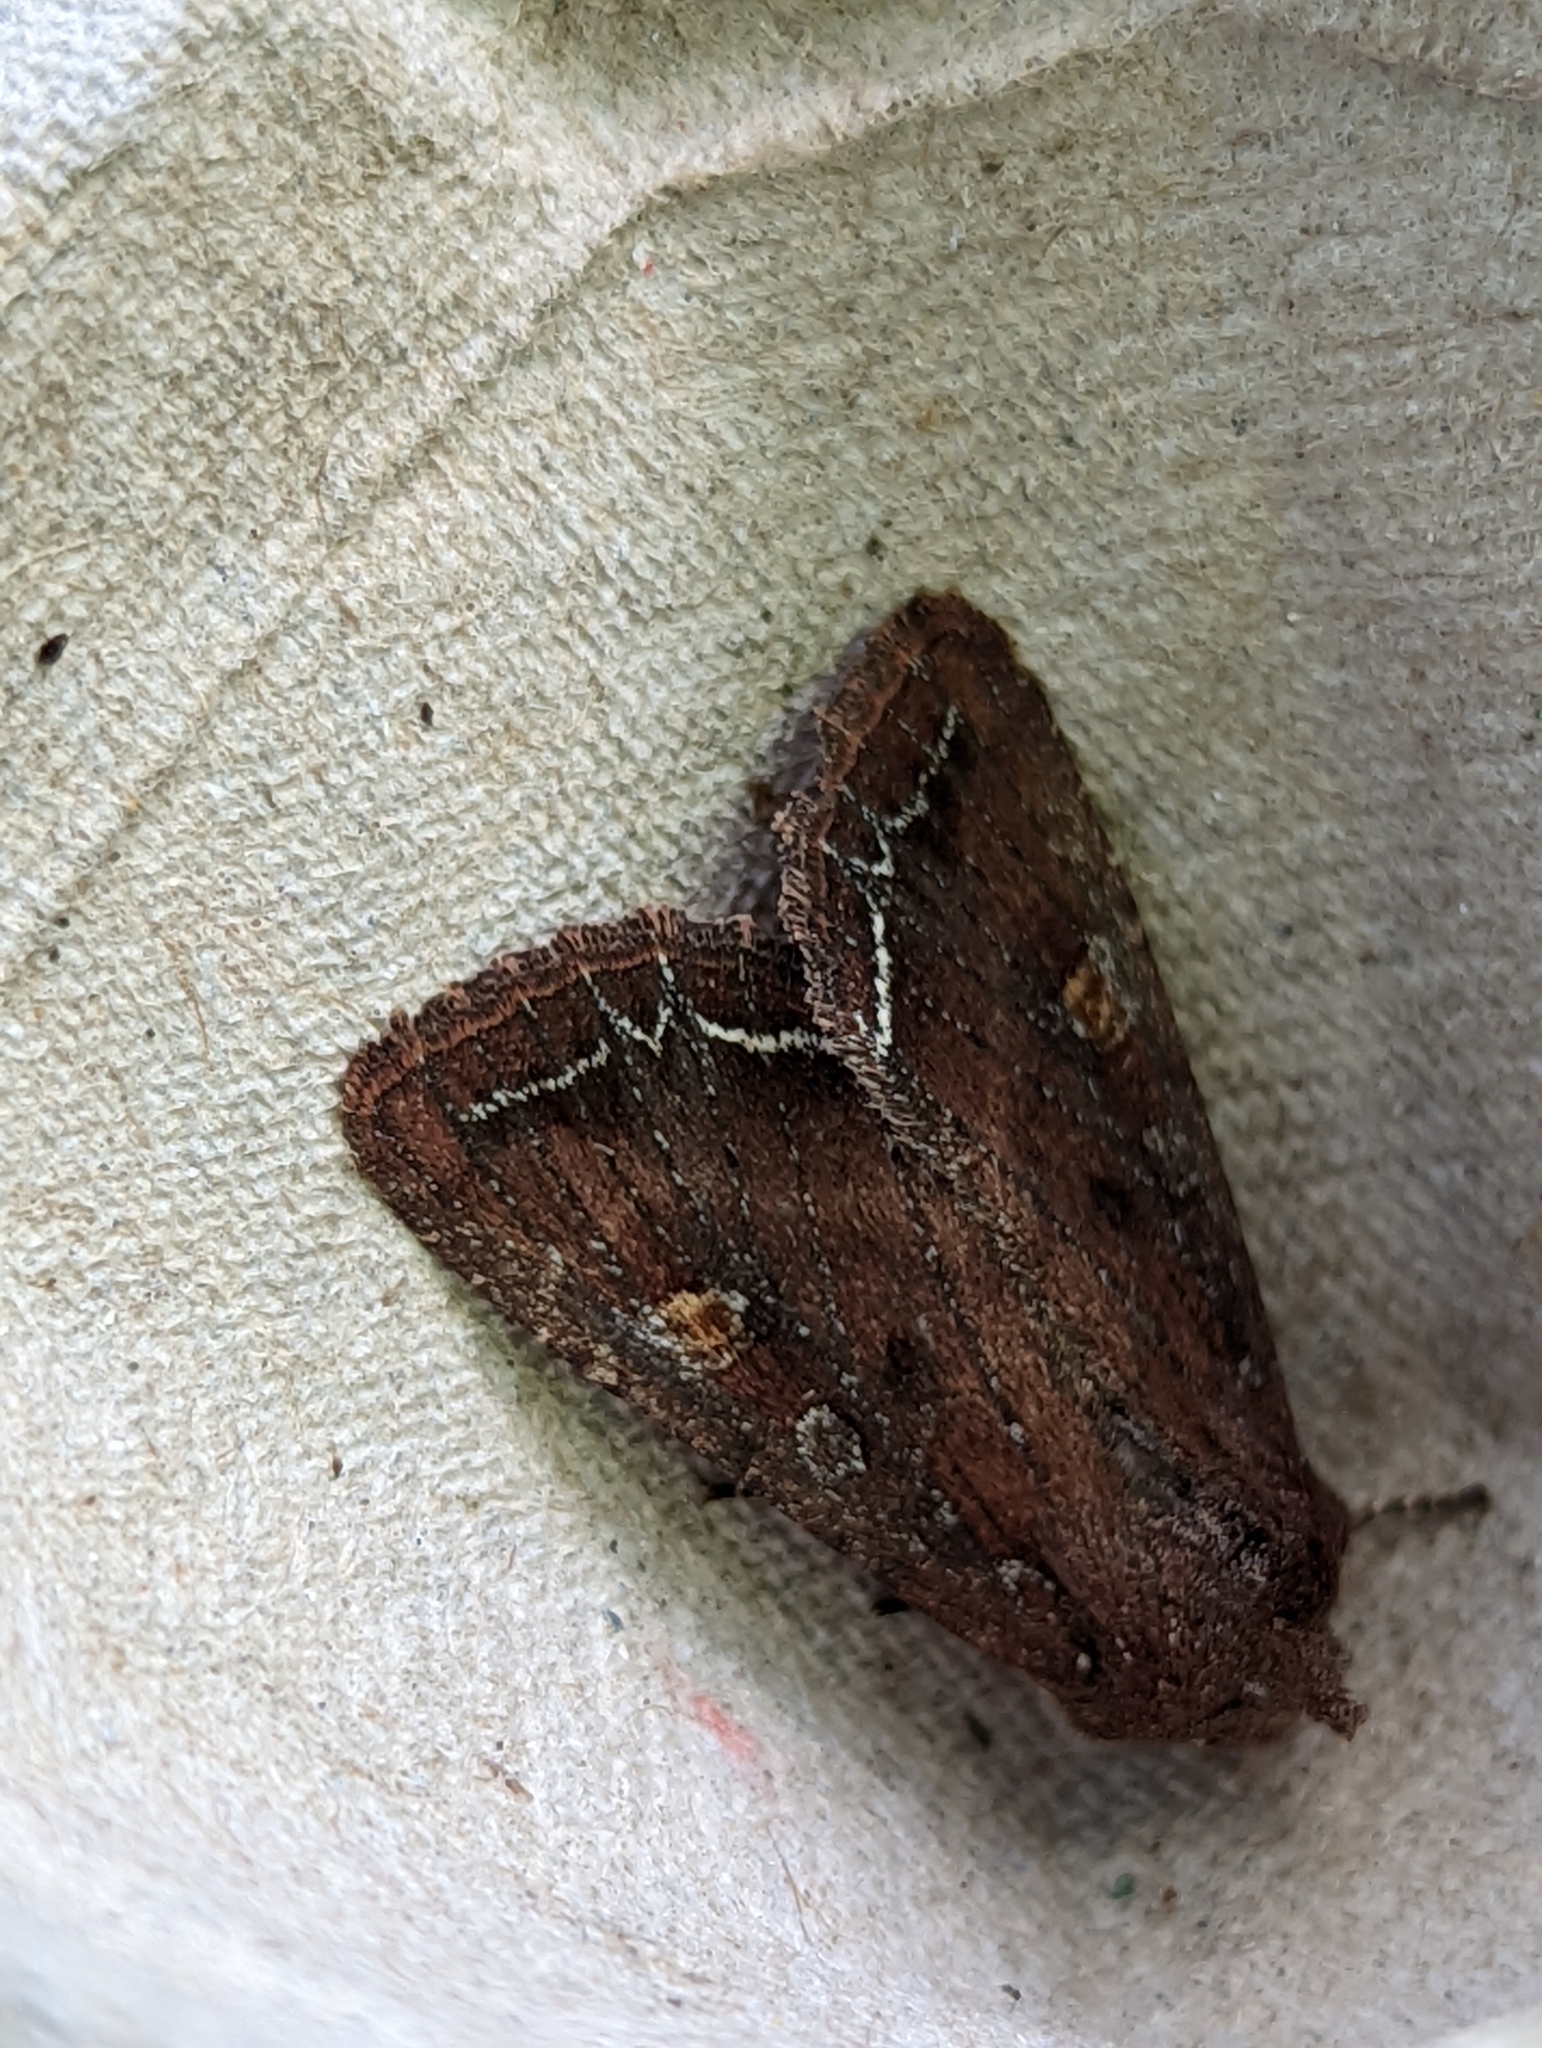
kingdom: Animalia
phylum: Arthropoda
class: Insecta
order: Lepidoptera
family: Noctuidae
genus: Lacanobia
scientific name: Lacanobia oleracea
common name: Bright-line brown-eye
